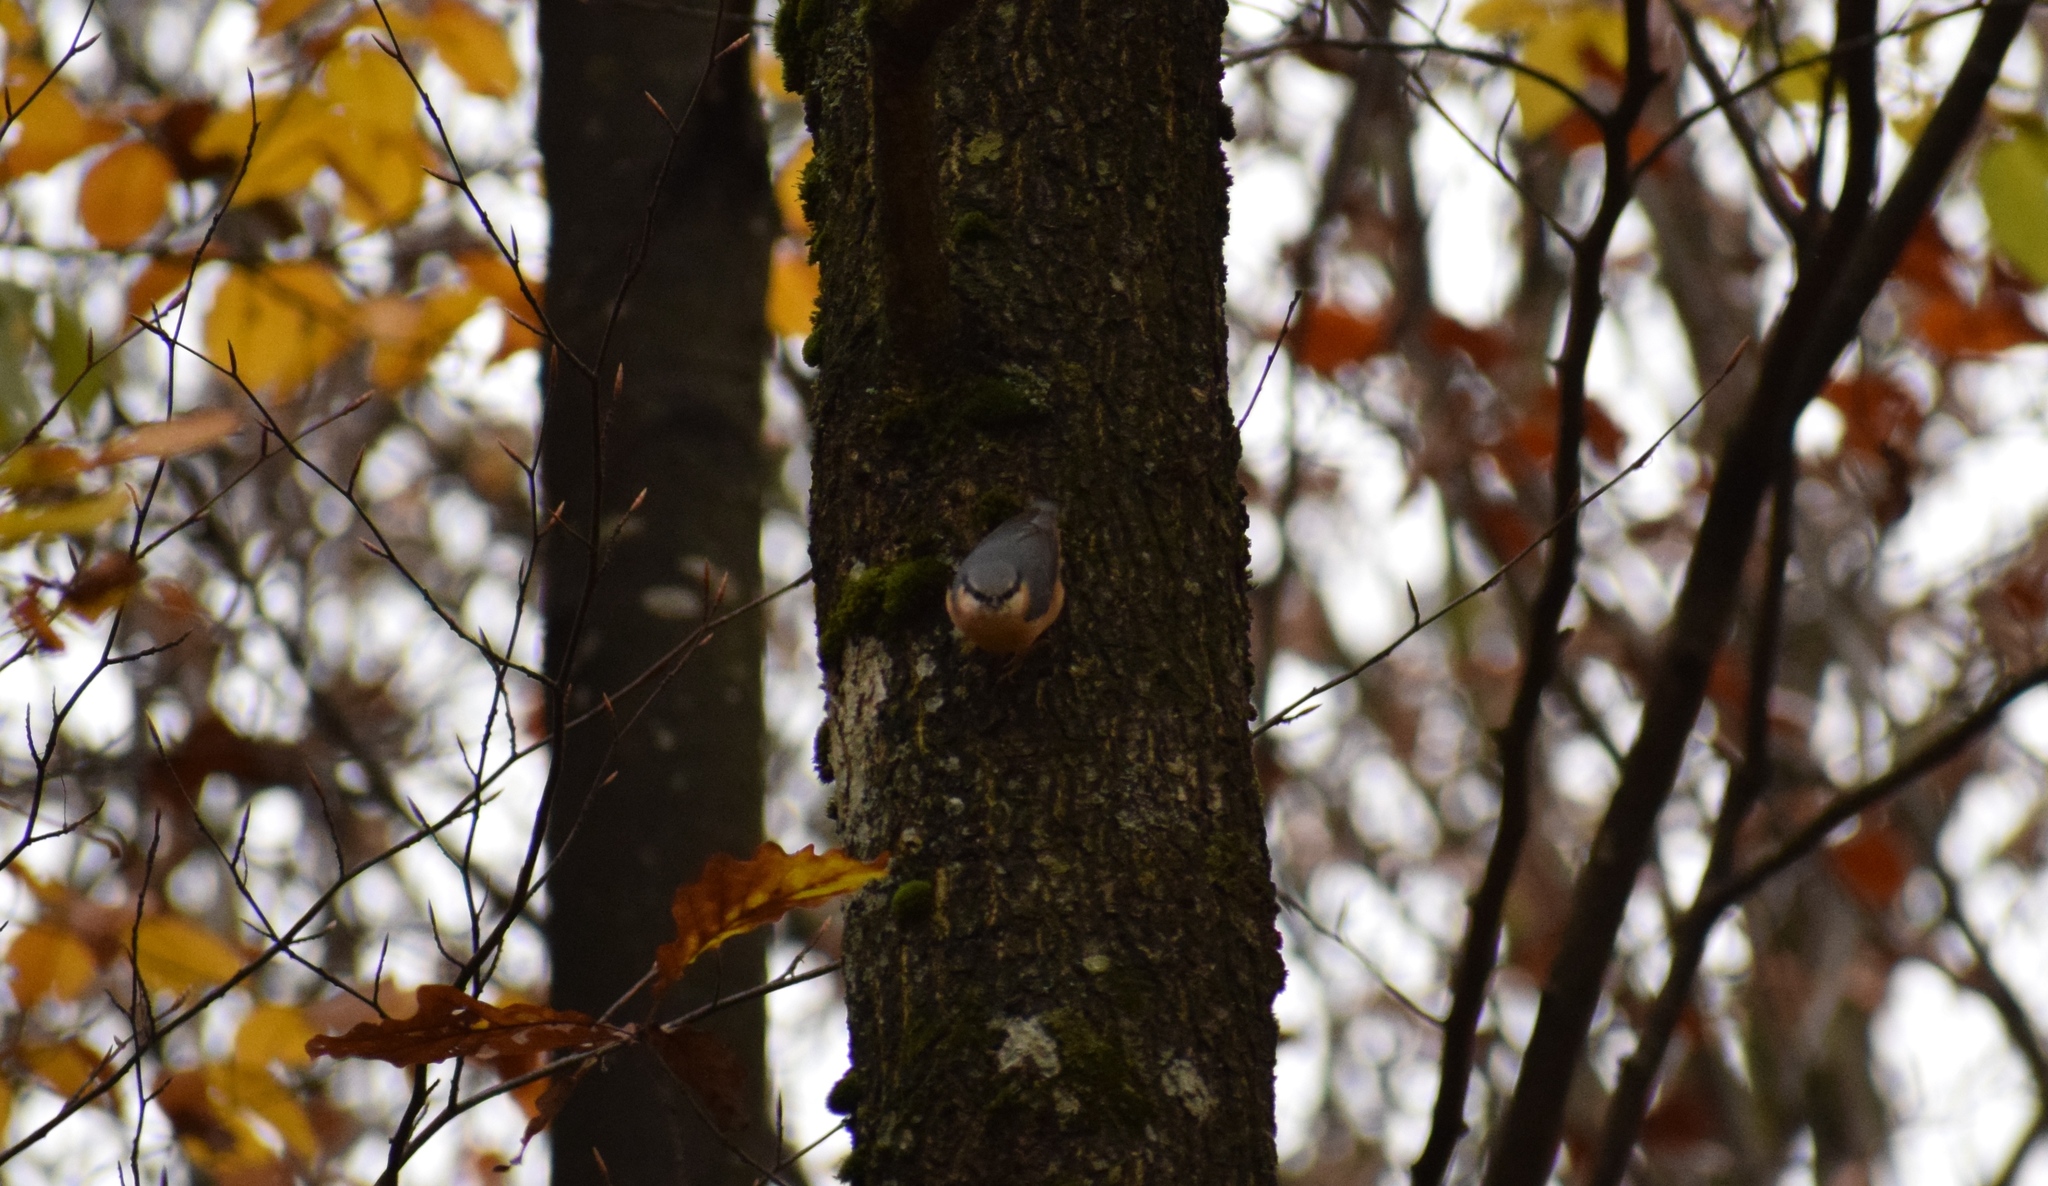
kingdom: Animalia
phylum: Chordata
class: Aves
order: Passeriformes
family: Sittidae
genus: Sitta
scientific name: Sitta europaea
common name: Eurasian nuthatch
